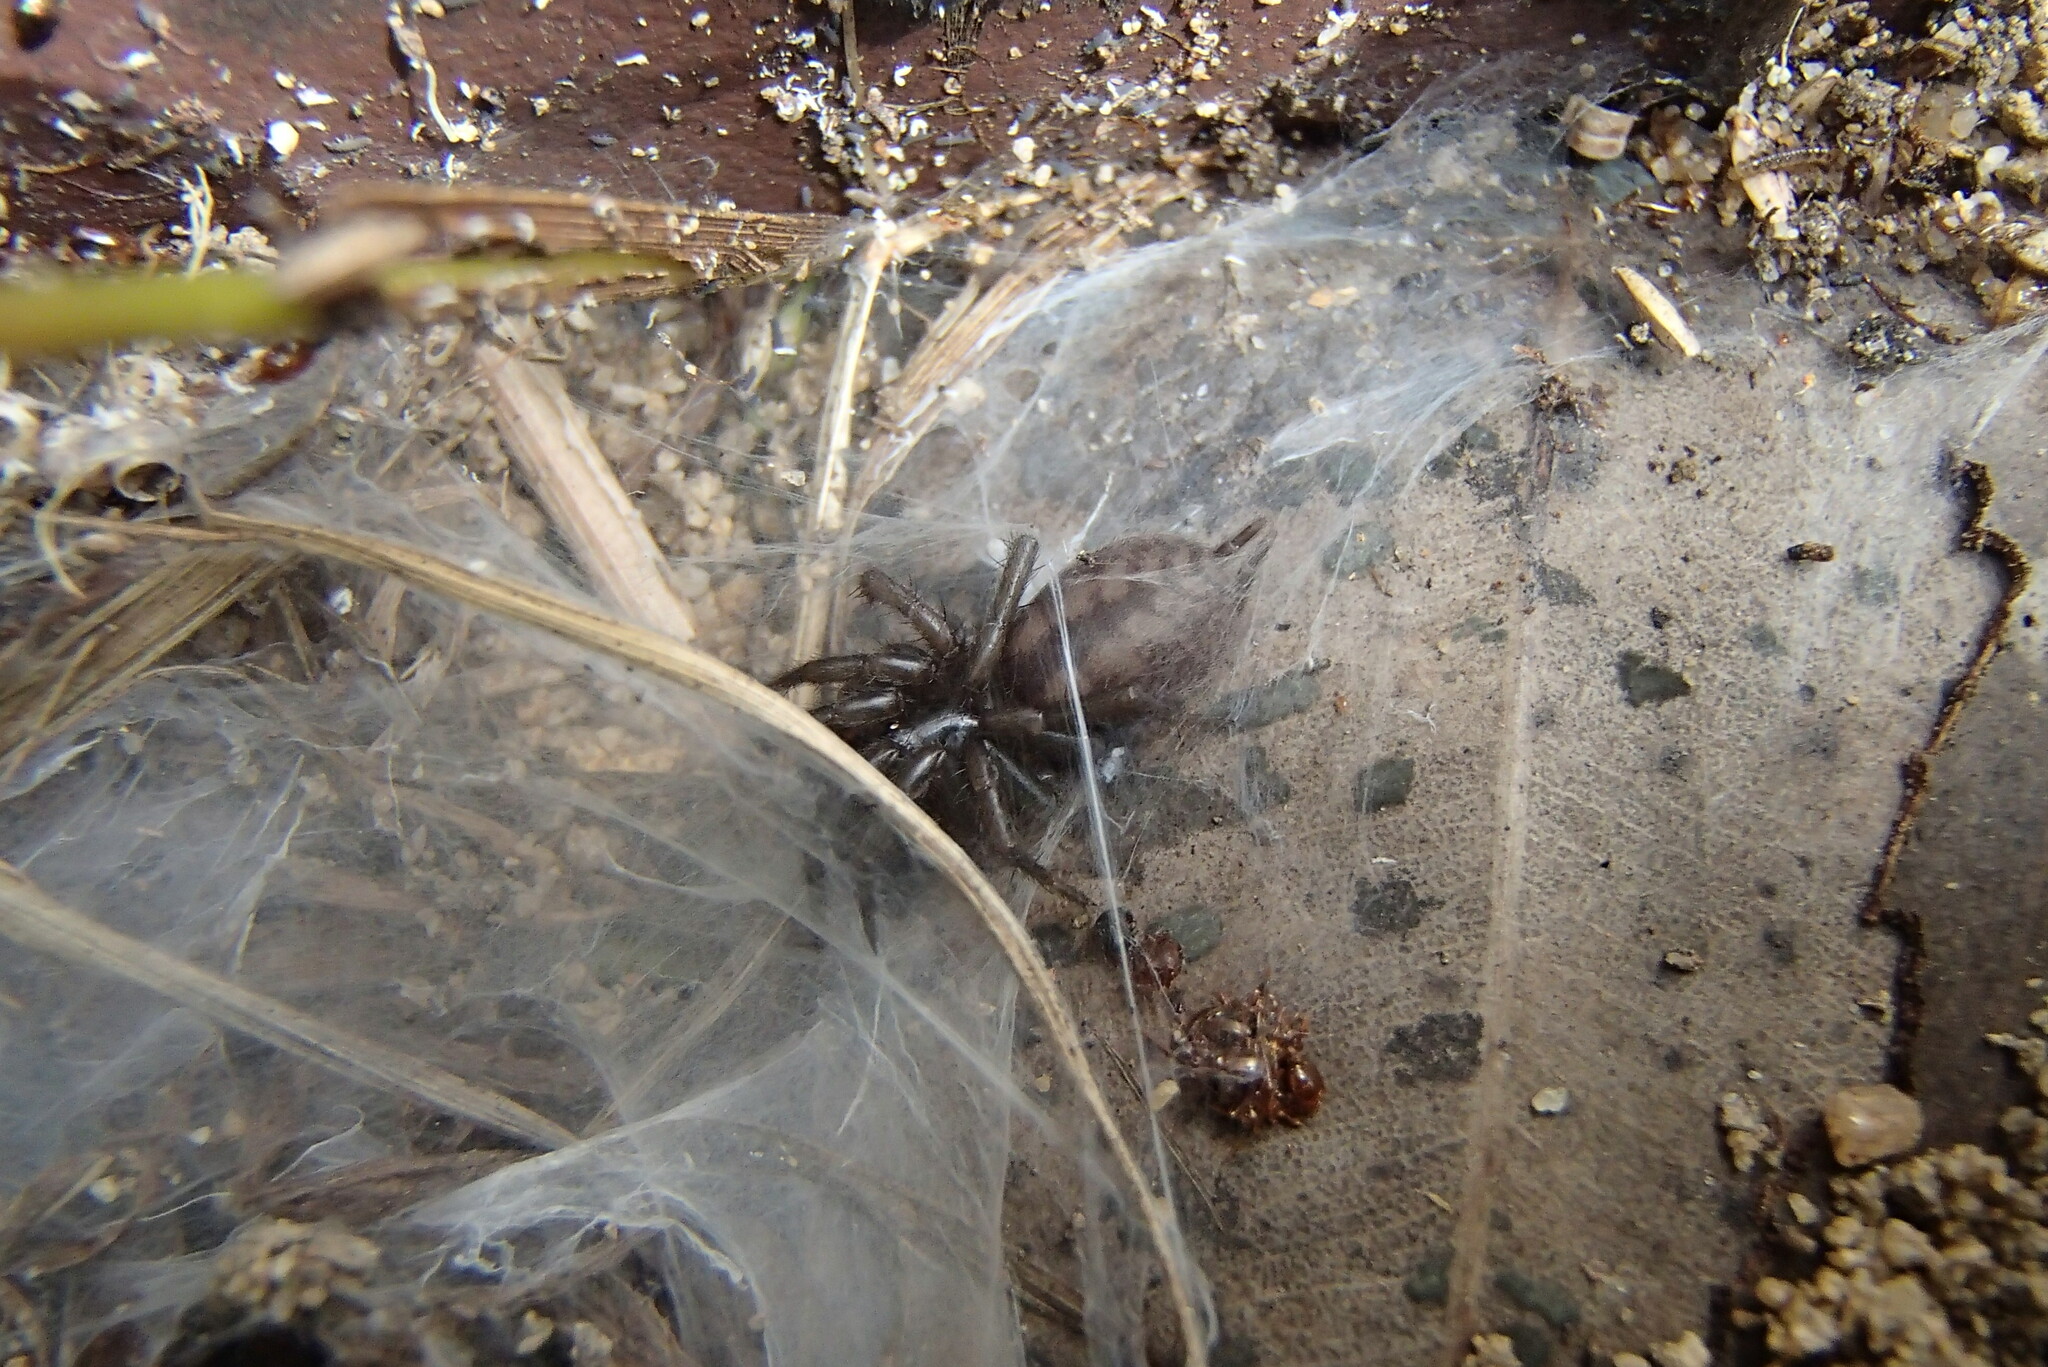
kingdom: Animalia
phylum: Arthropoda
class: Arachnida
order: Araneae
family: Hexathelidae
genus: Paraembolides
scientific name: Paraembolides variabilis
